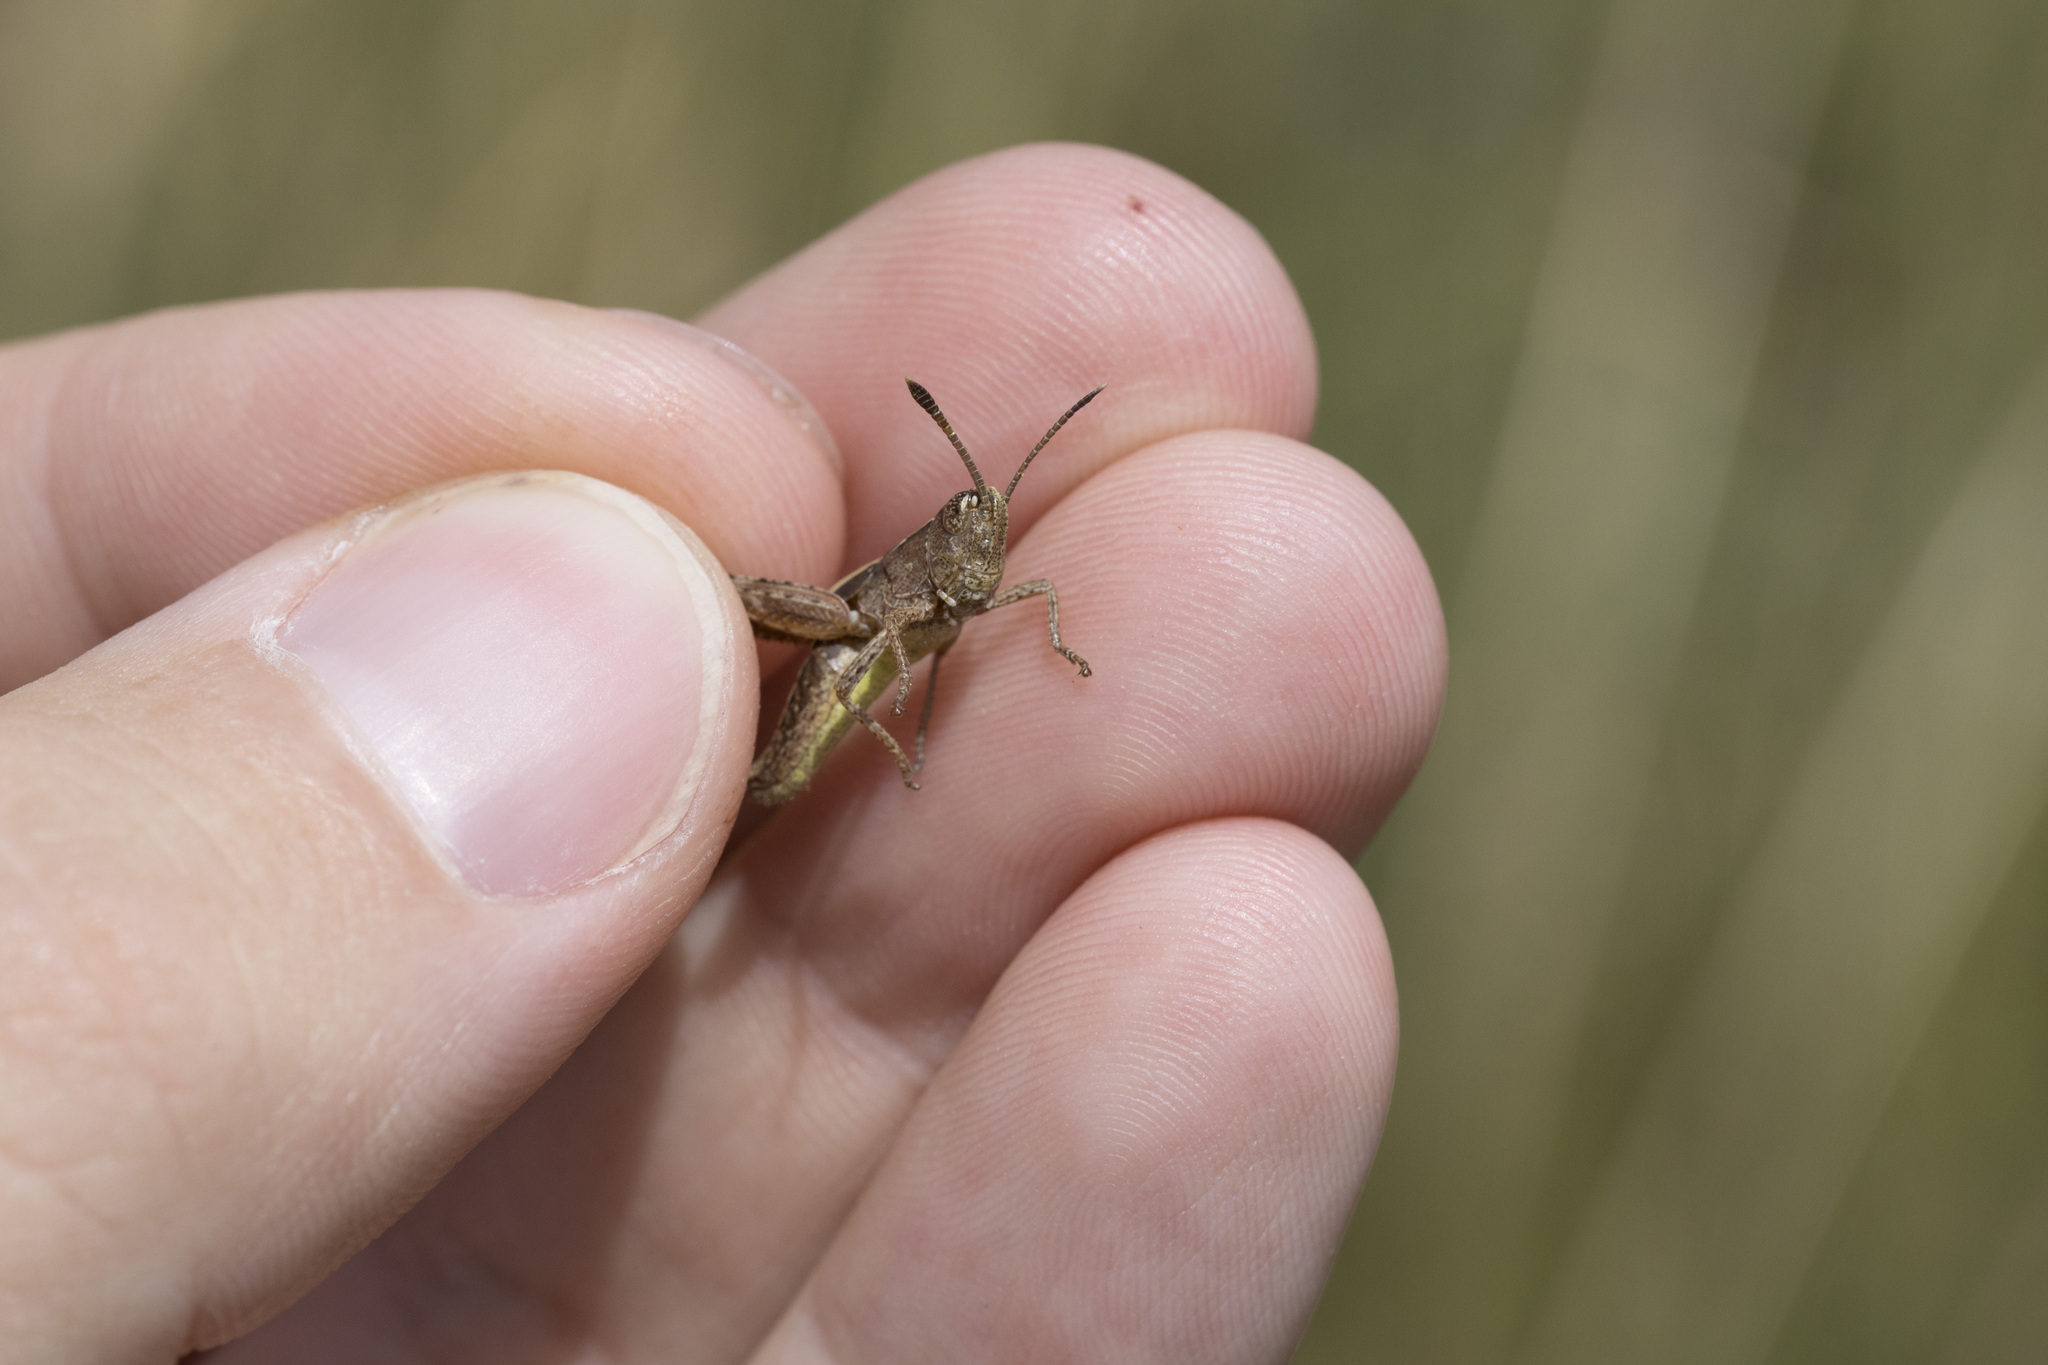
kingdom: Animalia
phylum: Arthropoda
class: Insecta
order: Orthoptera
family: Acrididae
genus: Gomphocerippus
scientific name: Gomphocerippus rufus
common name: Rufous grasshopper
